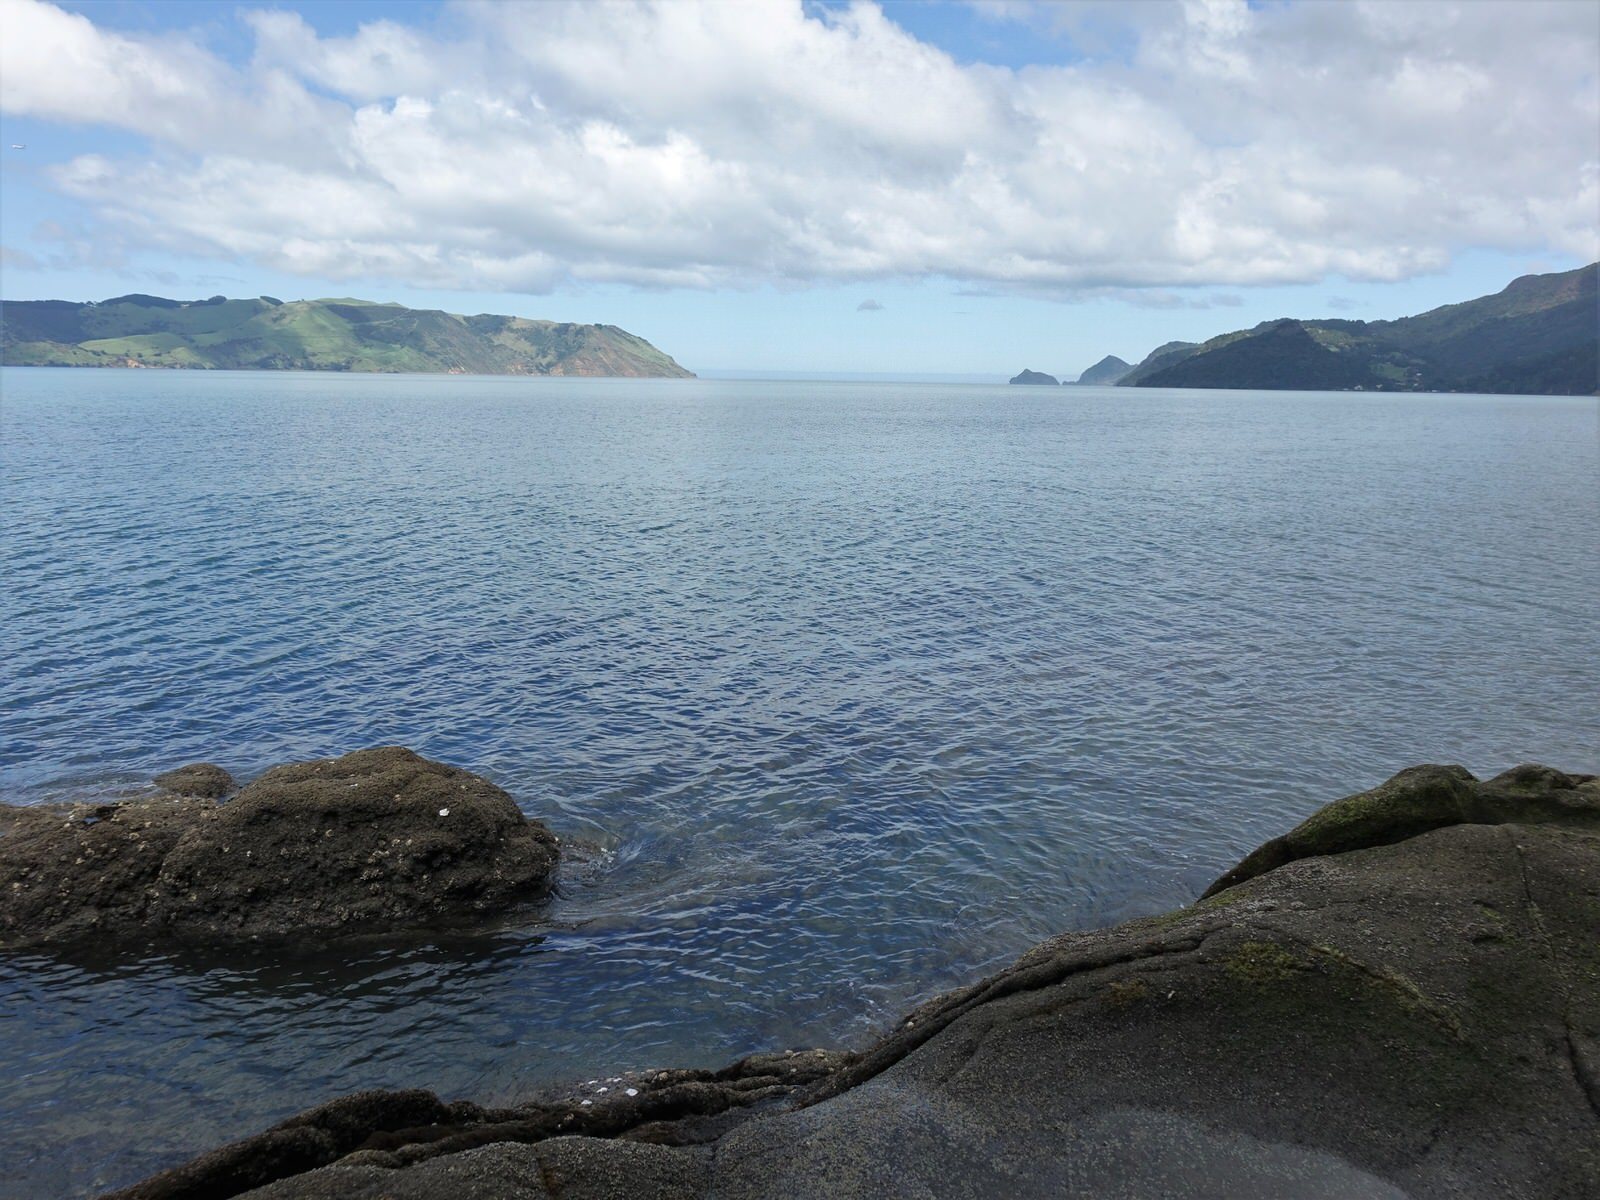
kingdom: Animalia
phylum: Arthropoda
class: Malacostraca
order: Decapoda
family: Oziidae
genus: Ozius
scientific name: Ozius deplanatus
